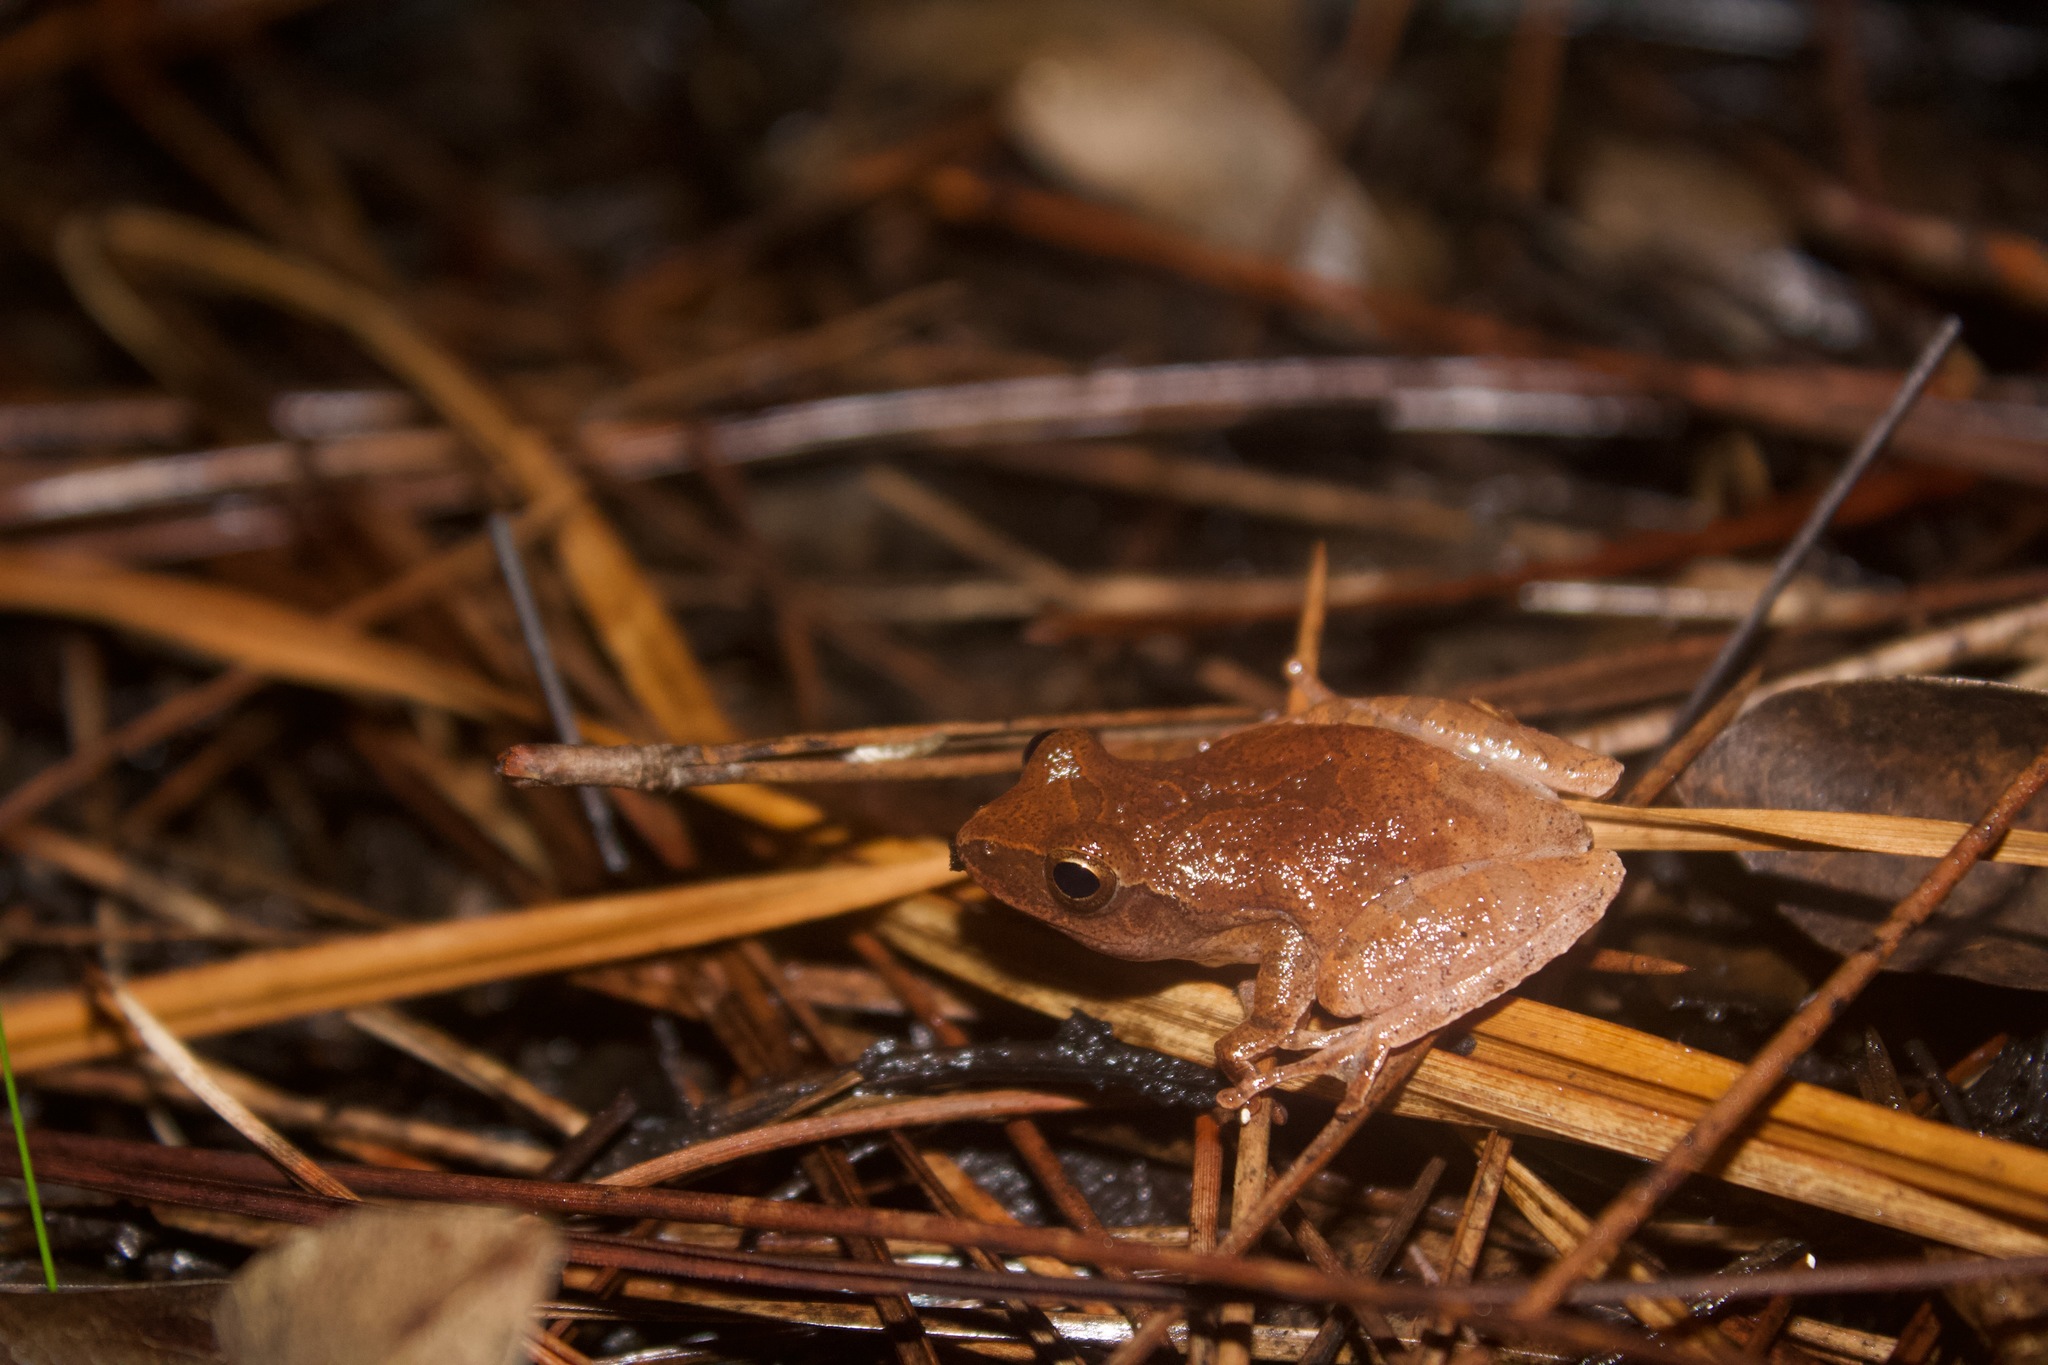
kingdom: Animalia
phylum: Chordata
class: Amphibia
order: Anura
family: Hylidae
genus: Pseudacris
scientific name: Pseudacris crucifer
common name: Spring peeper
